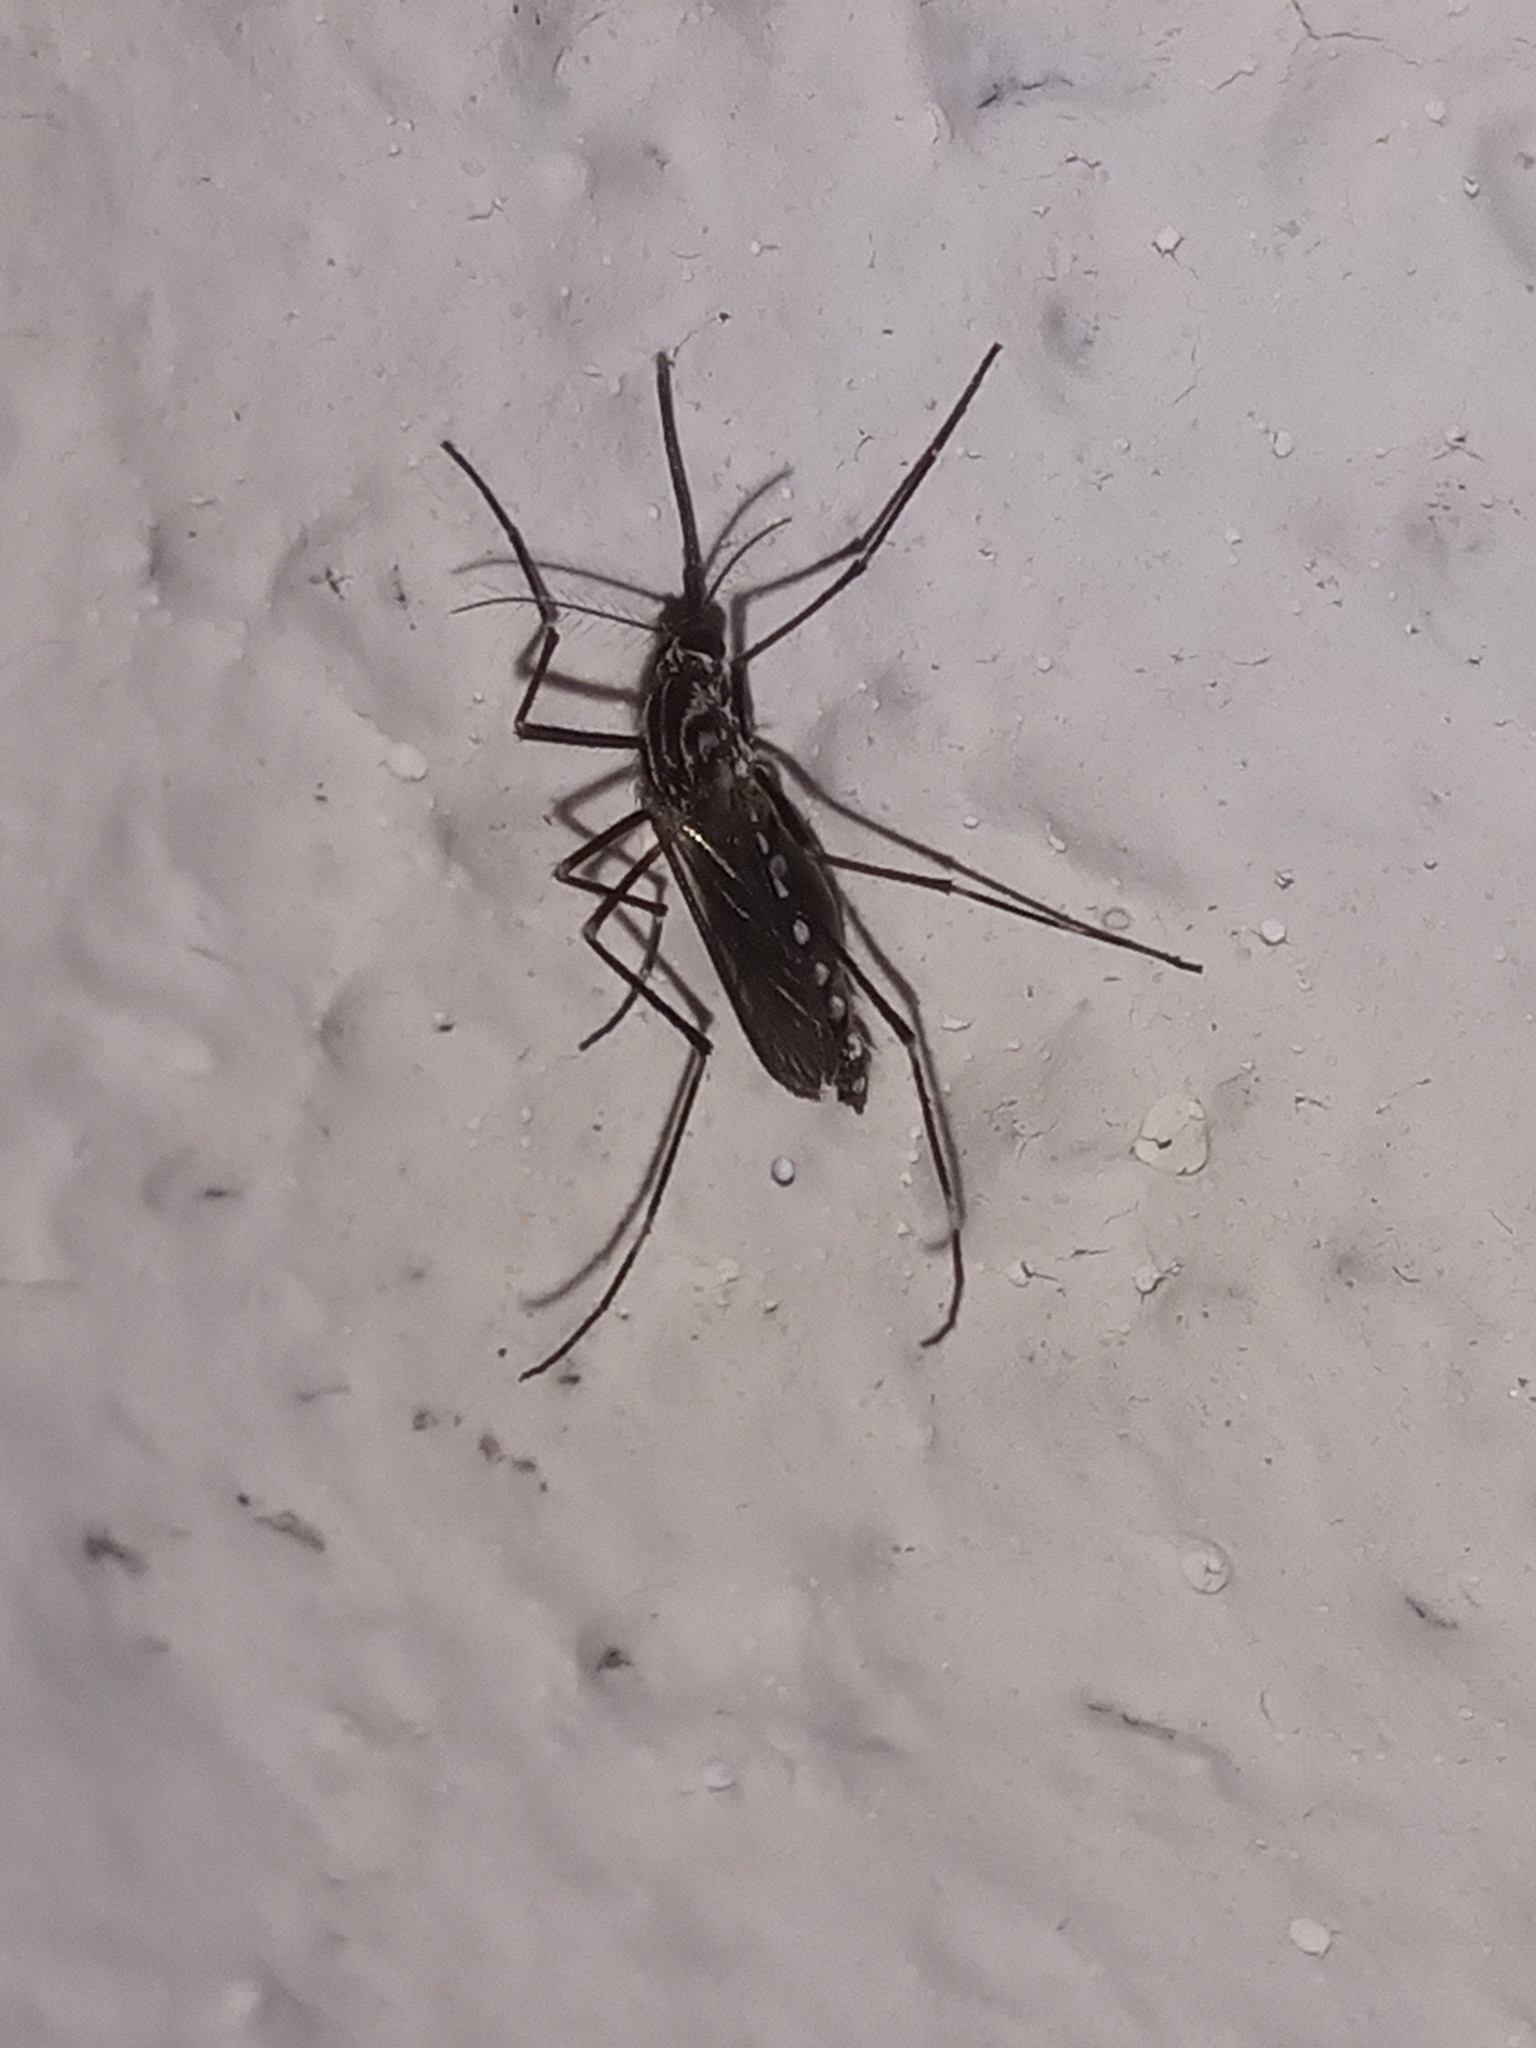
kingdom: Animalia
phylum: Arthropoda
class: Insecta
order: Diptera
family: Culicidae
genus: Aedes
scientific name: Aedes aegypti
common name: Yellow fever mosquito
